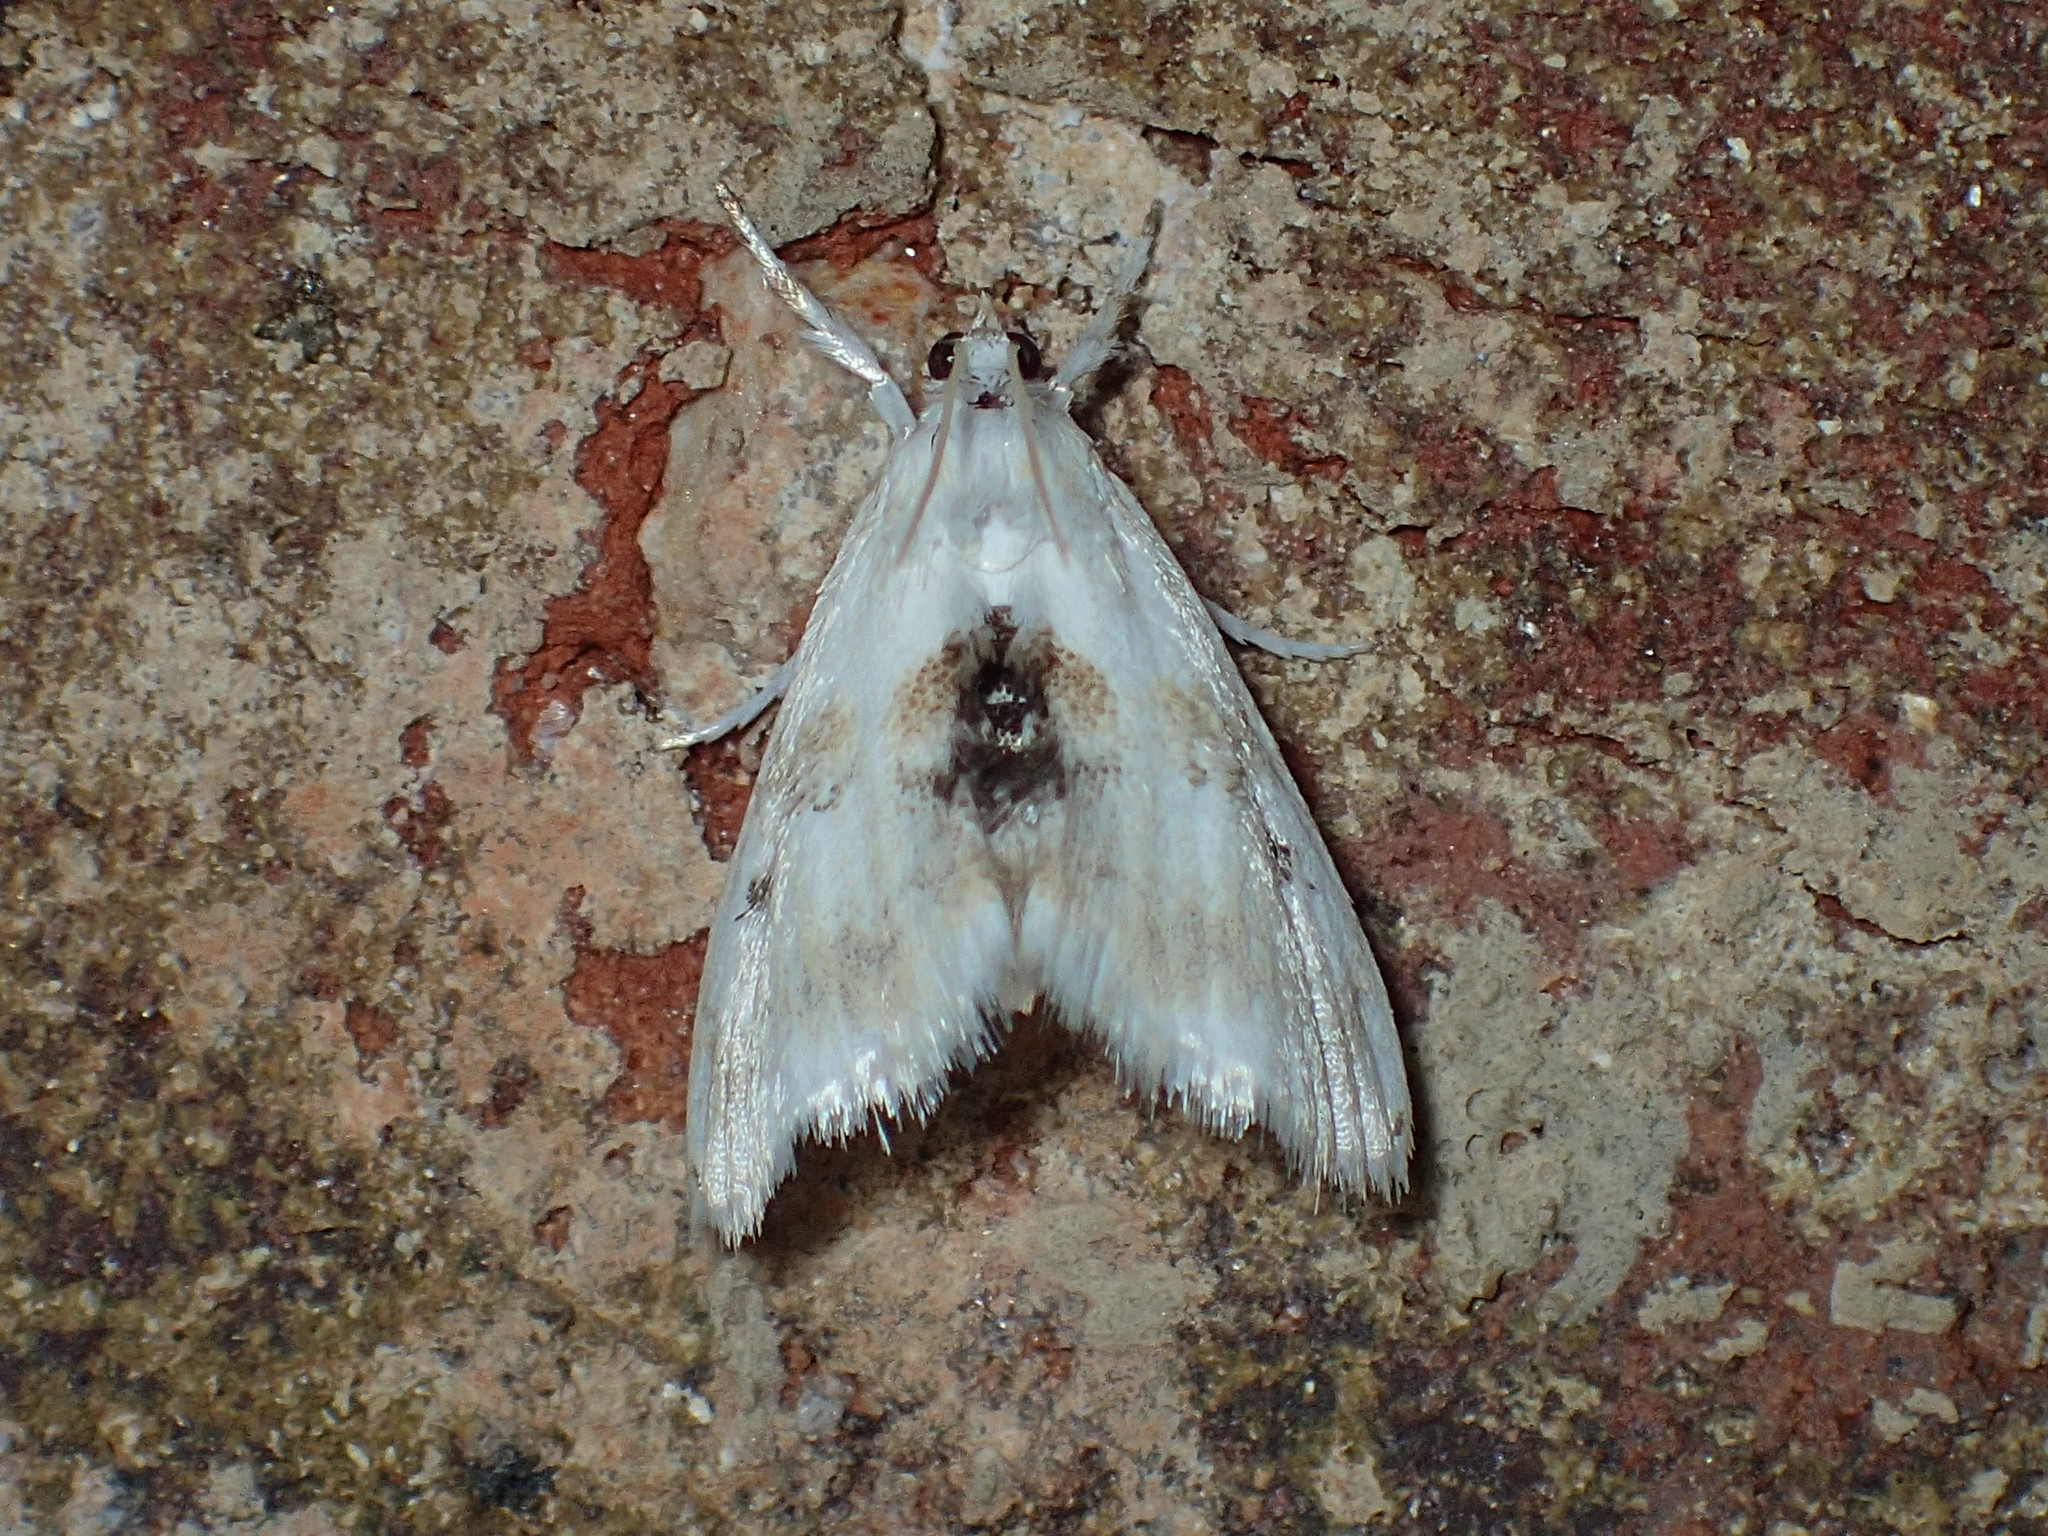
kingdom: Animalia
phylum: Arthropoda
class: Insecta
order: Lepidoptera
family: Crambidae
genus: Lipocosma
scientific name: Lipocosma sicalis
